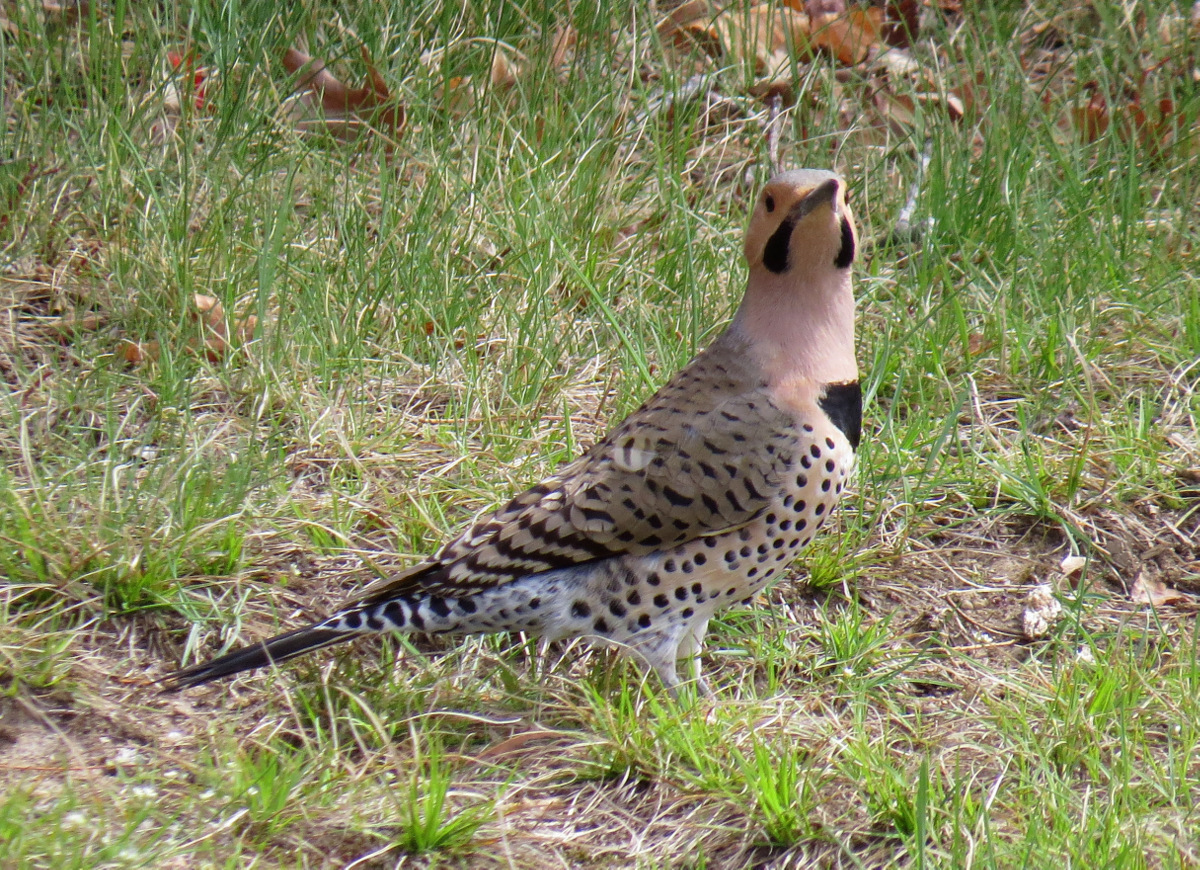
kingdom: Animalia
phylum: Chordata
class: Aves
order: Piciformes
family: Picidae
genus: Colaptes
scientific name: Colaptes auratus
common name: Northern flicker
